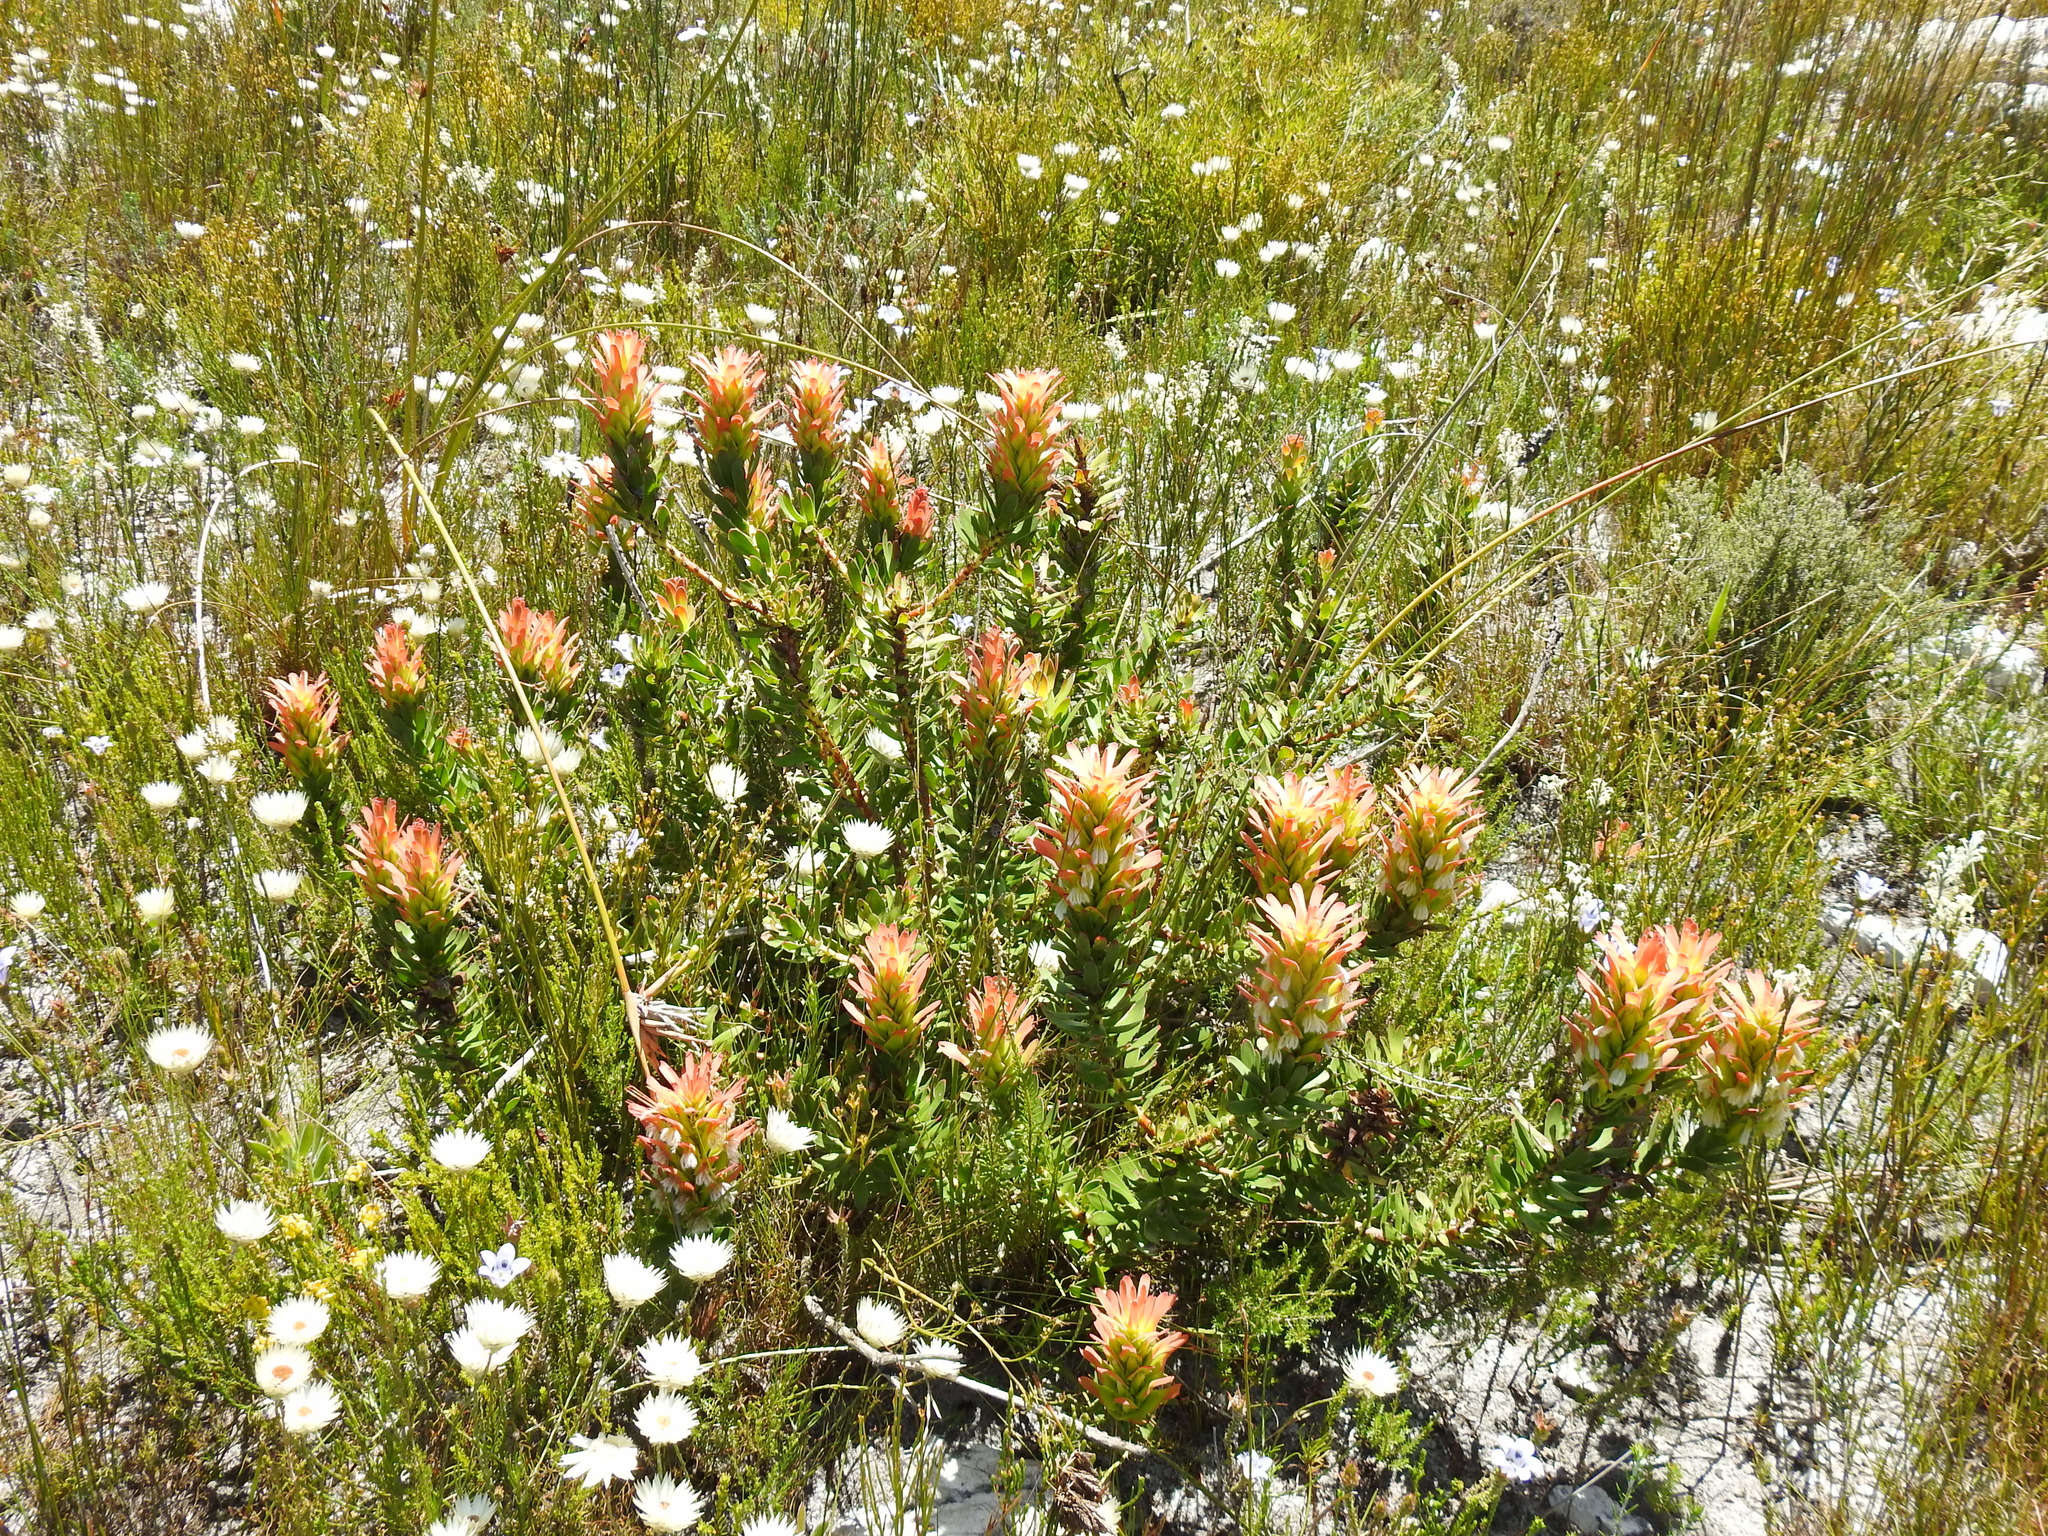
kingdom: Plantae
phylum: Tracheophyta
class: Magnoliopsida
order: Proteales
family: Proteaceae
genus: Mimetes
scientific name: Mimetes cucullatus
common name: Common pagoda
